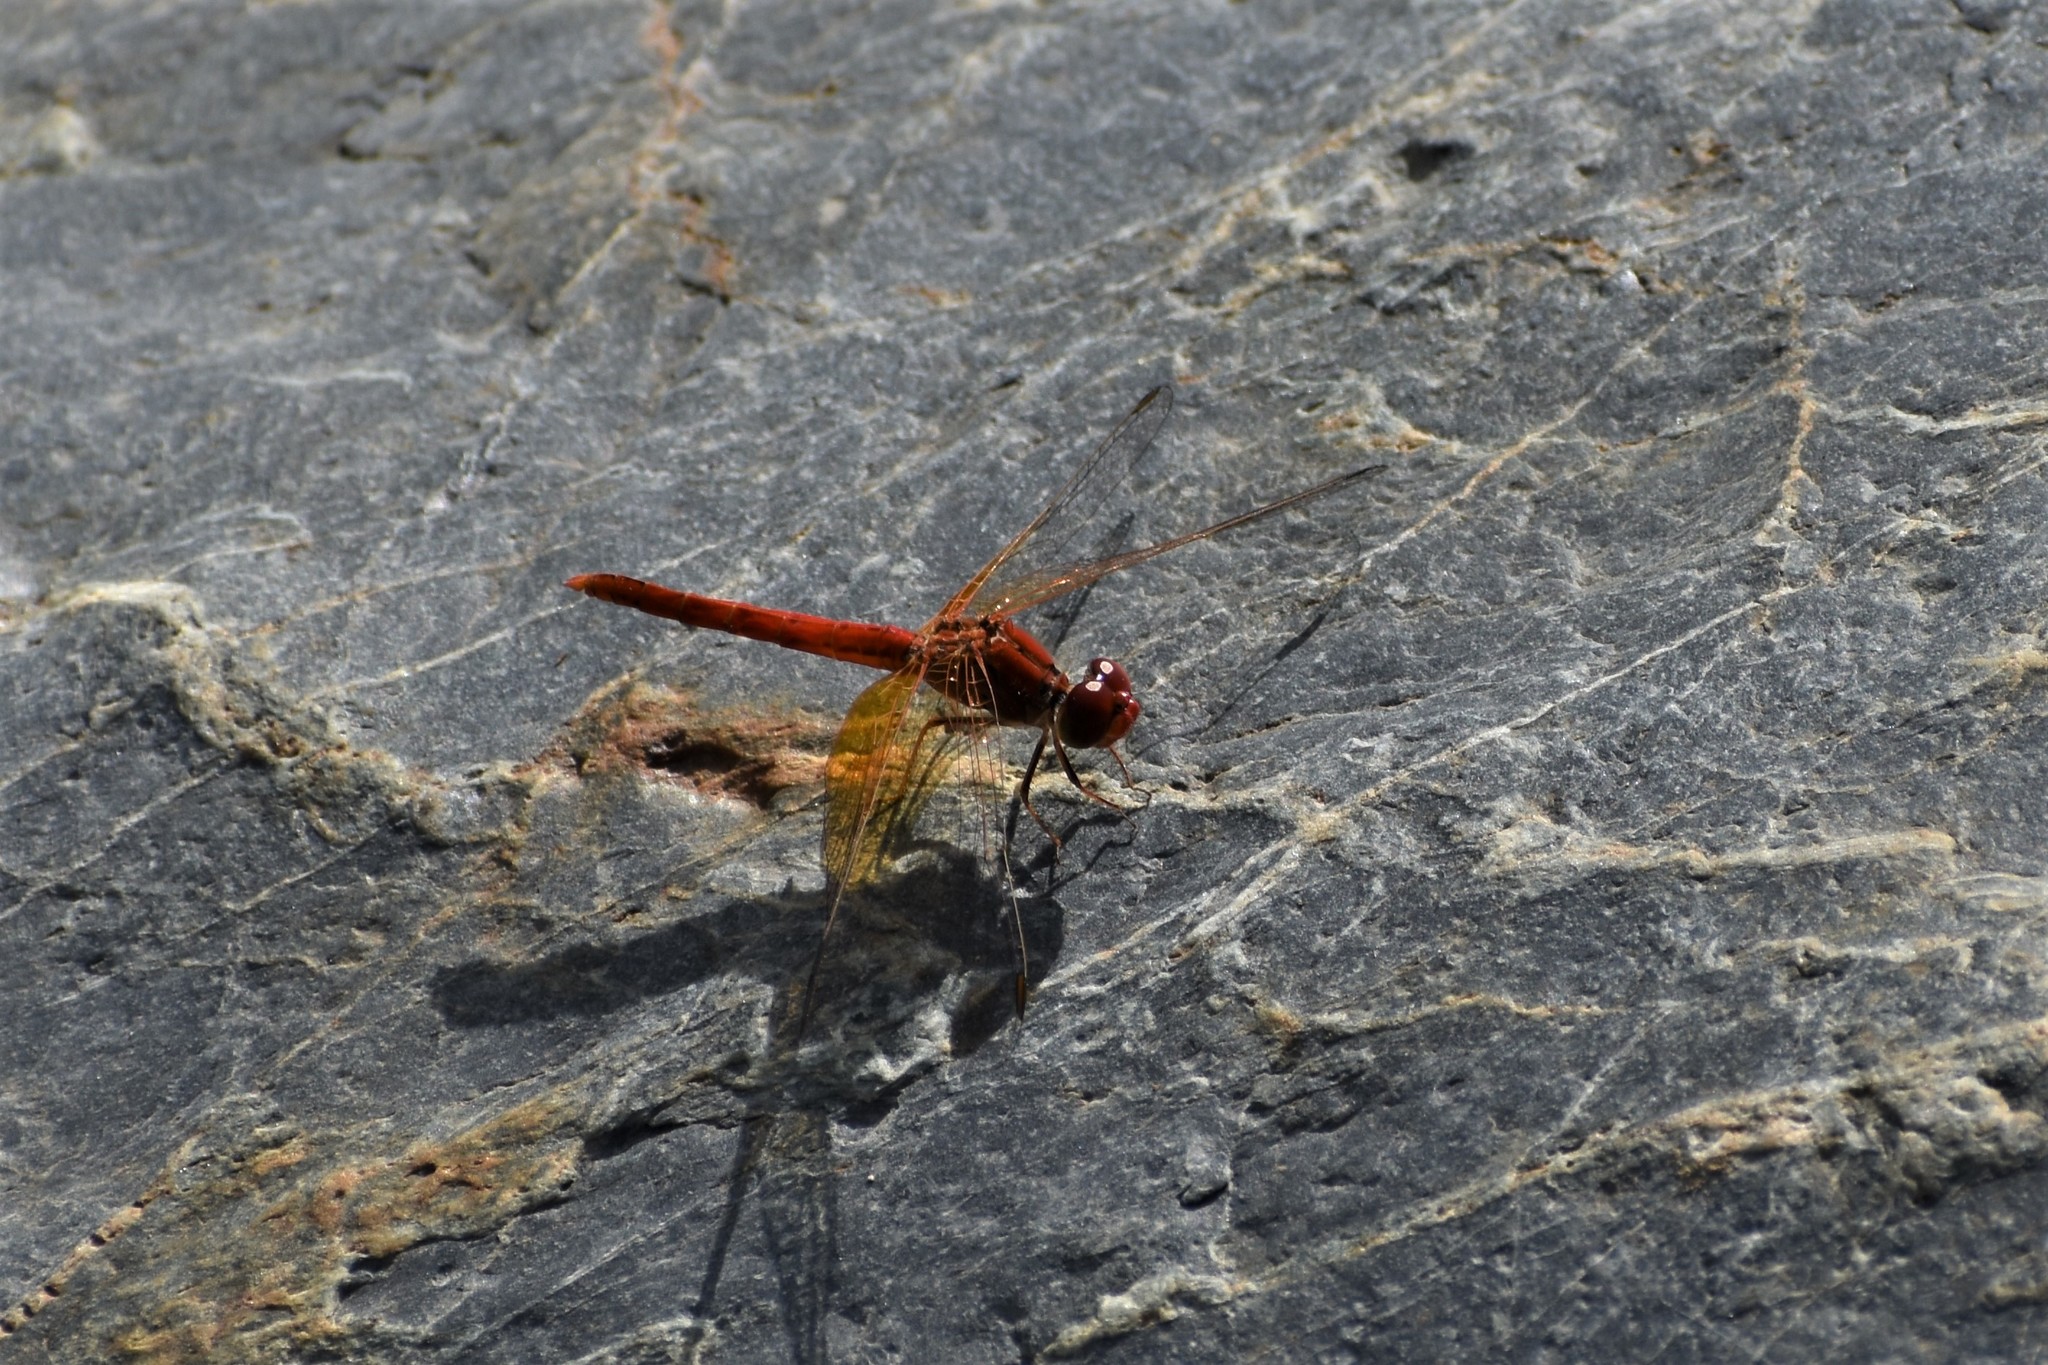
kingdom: Animalia
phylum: Arthropoda
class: Insecta
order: Odonata
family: Libellulidae
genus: Diplacodes
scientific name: Diplacodes haematodes
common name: Scarlet percher
